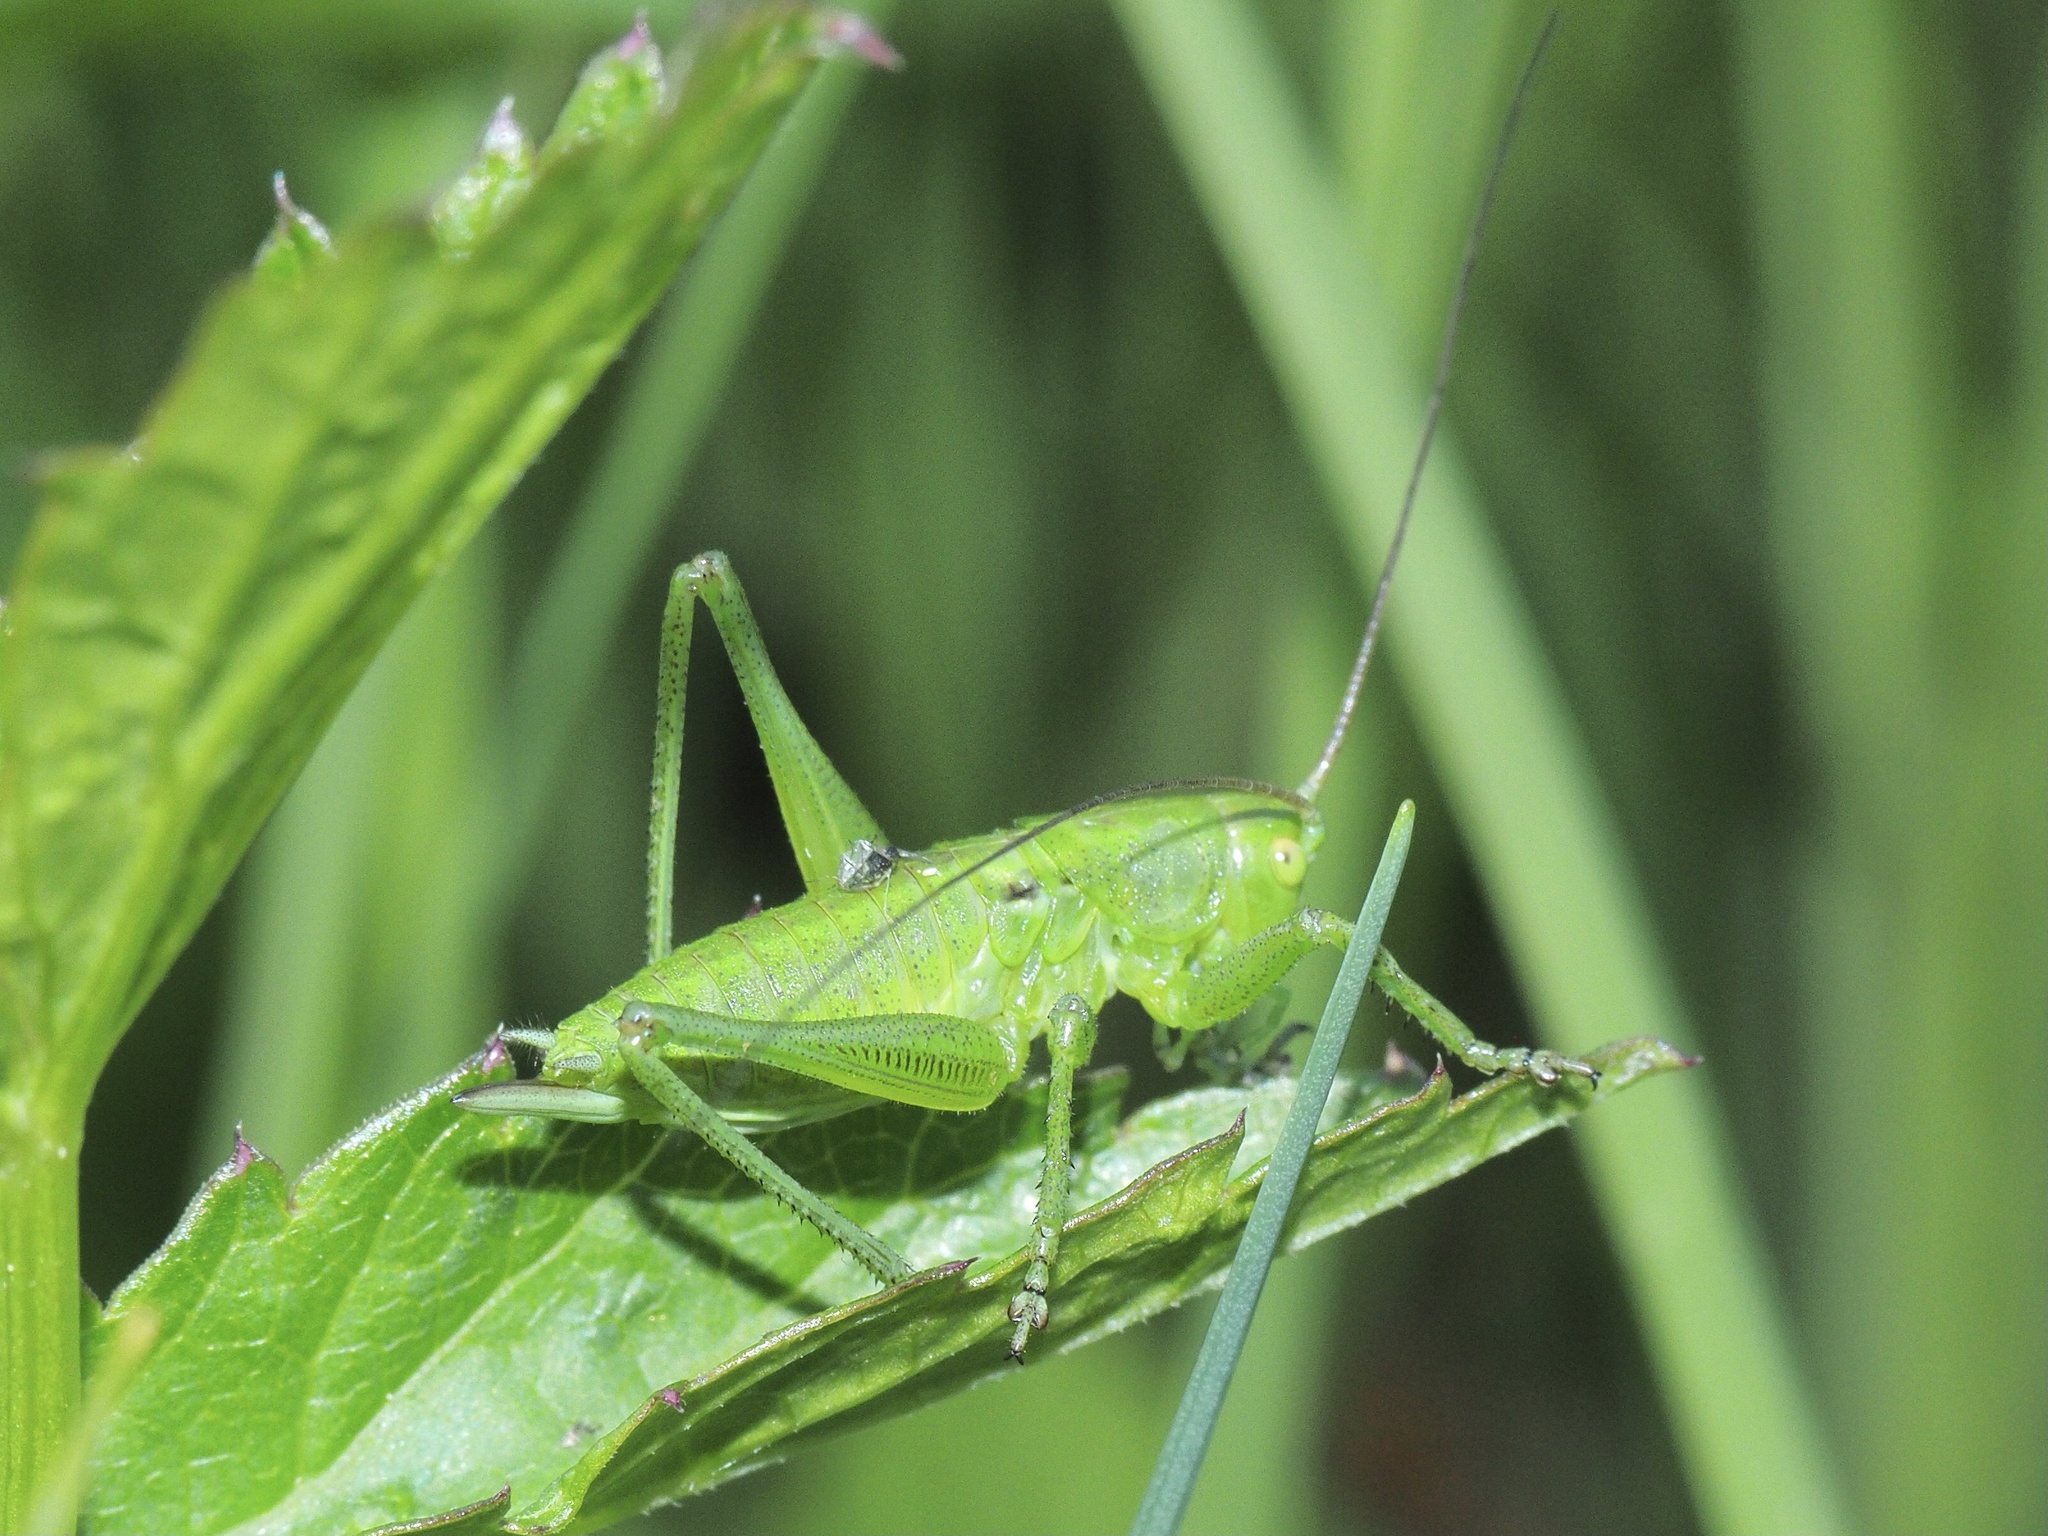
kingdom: Animalia
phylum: Arthropoda
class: Insecta
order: Orthoptera
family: Tettigoniidae
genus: Tettigonia
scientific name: Tettigonia cantans
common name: Upland green bush-cricket
